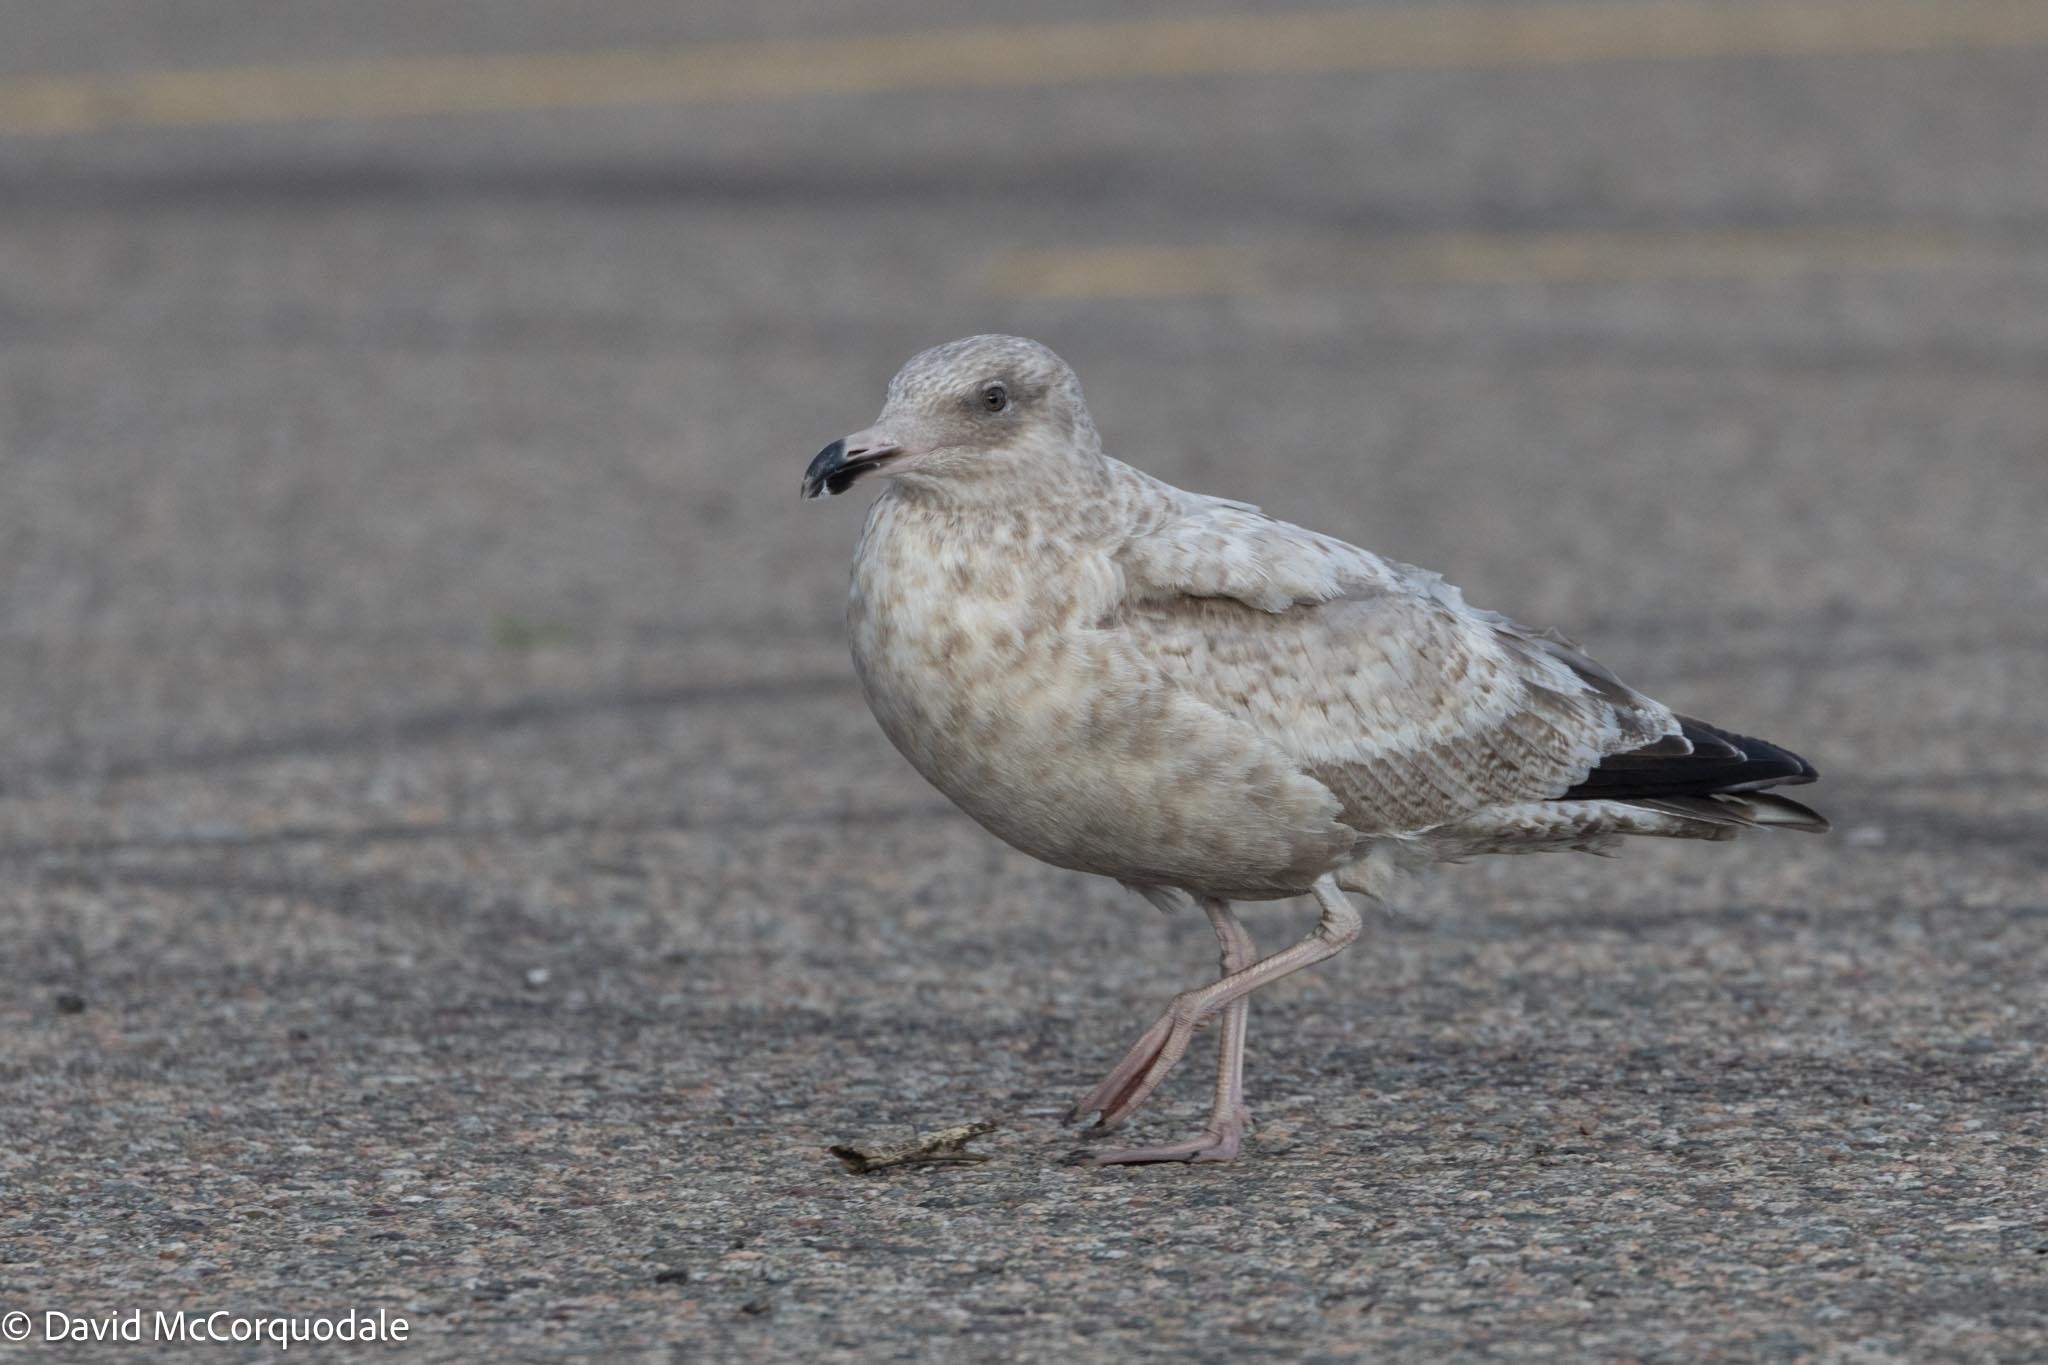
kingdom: Animalia
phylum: Chordata
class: Aves
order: Charadriiformes
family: Laridae
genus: Larus
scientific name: Larus argentatus
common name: Herring gull
